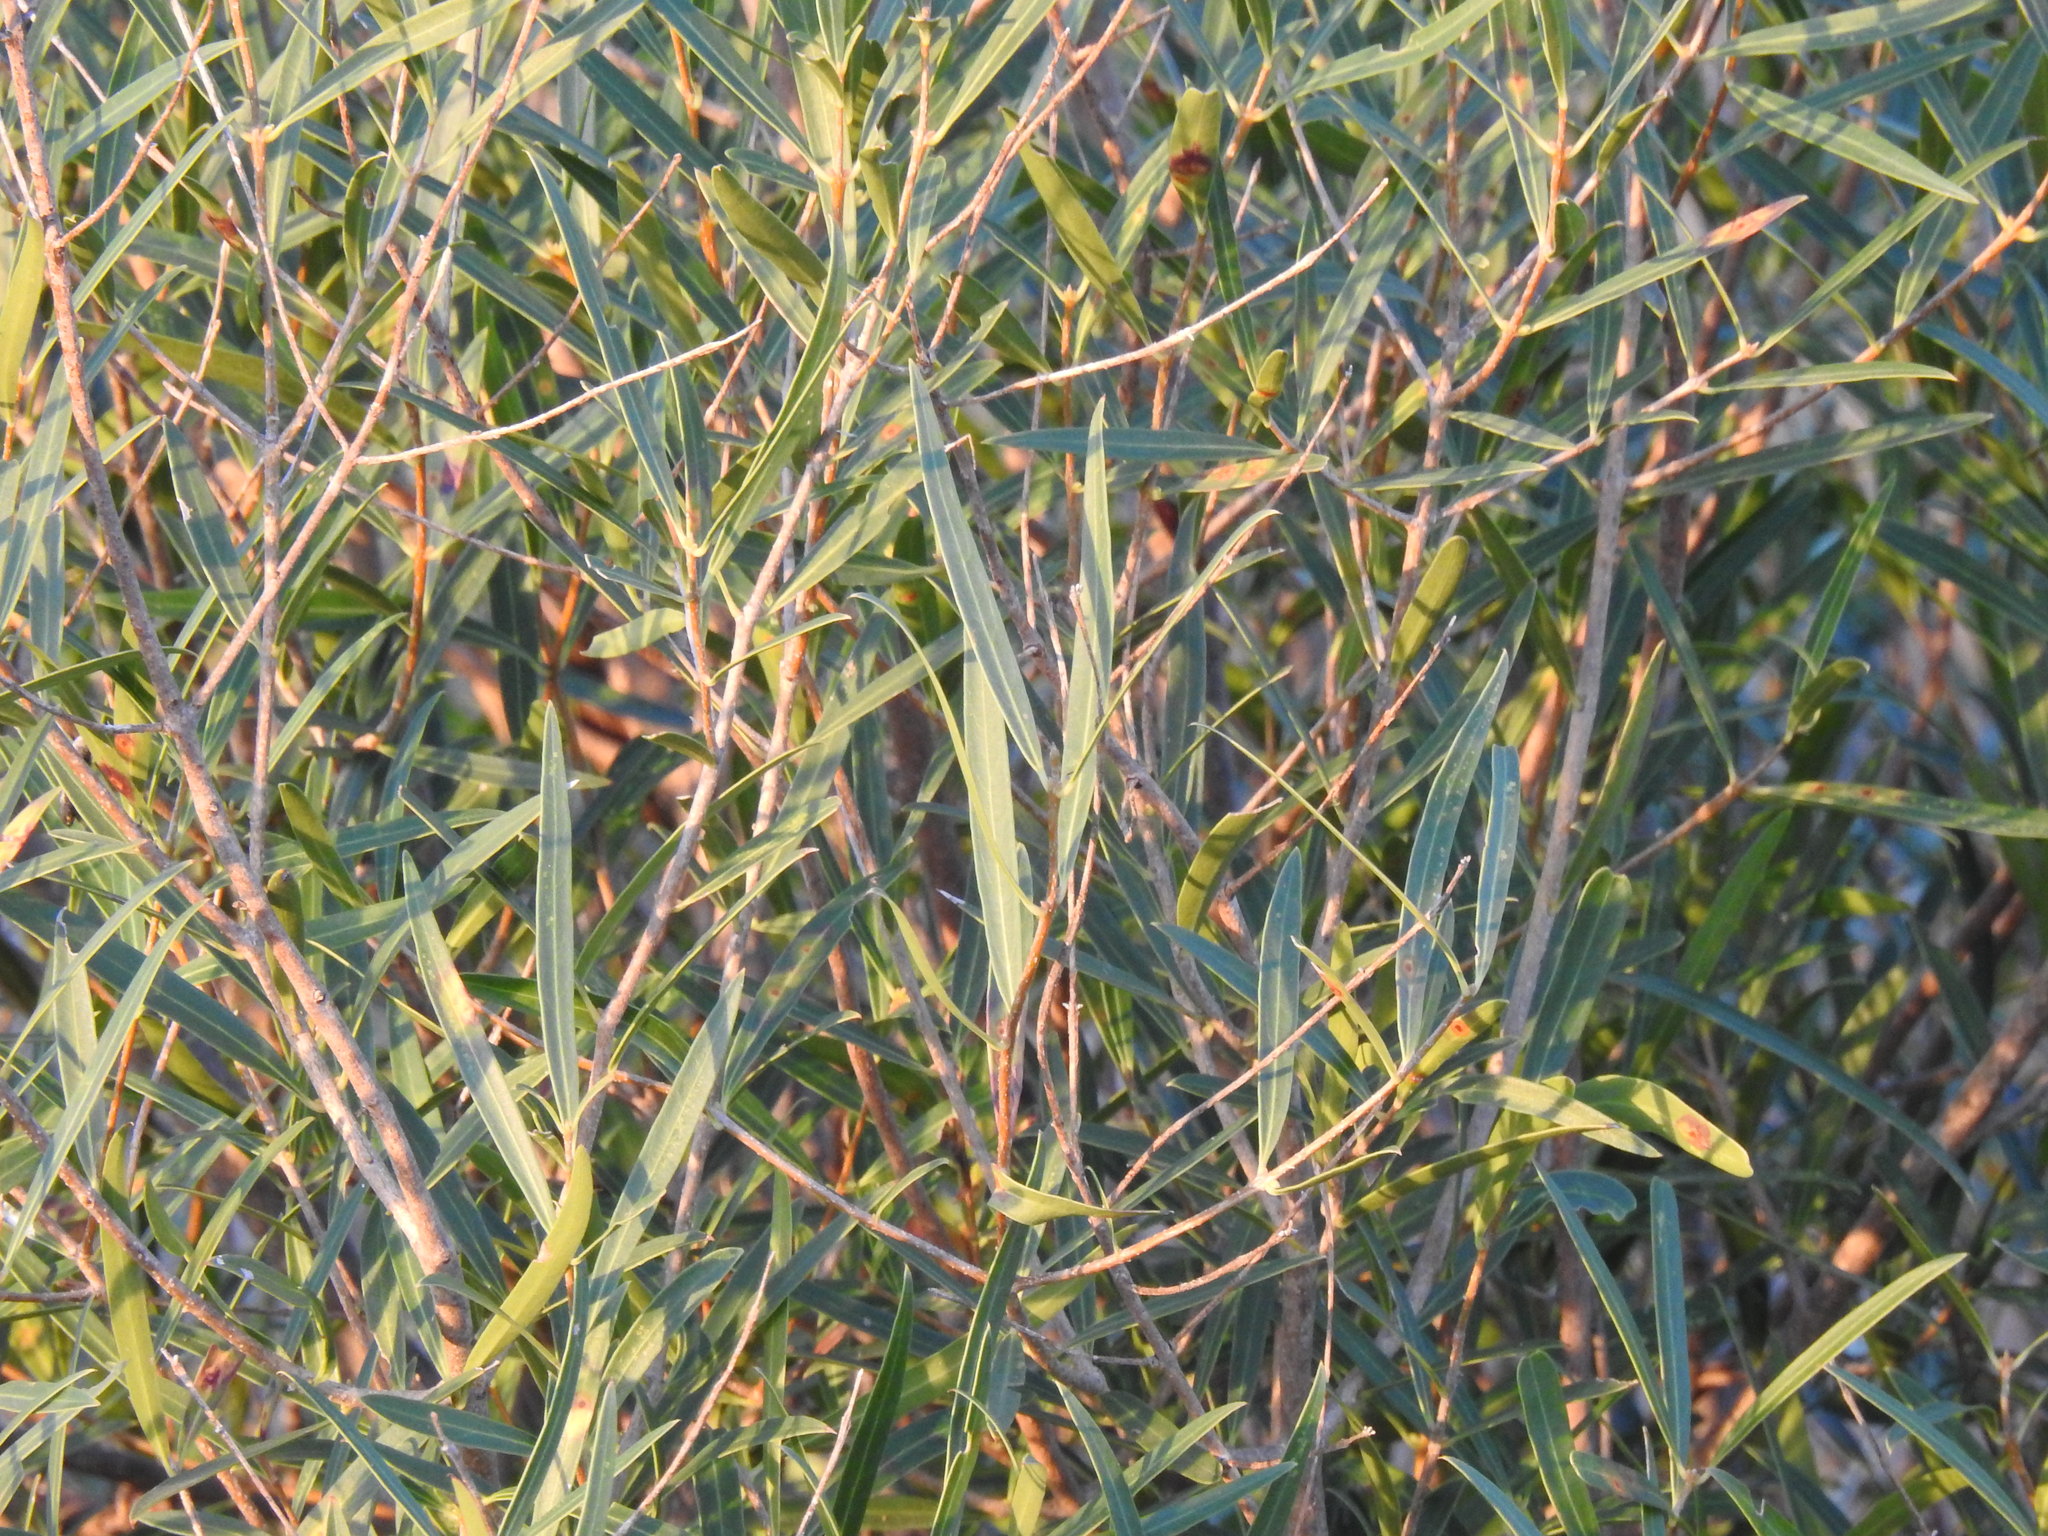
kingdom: Plantae
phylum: Tracheophyta
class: Magnoliopsida
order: Lamiales
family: Oleaceae
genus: Phillyrea
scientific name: Phillyrea angustifolia
